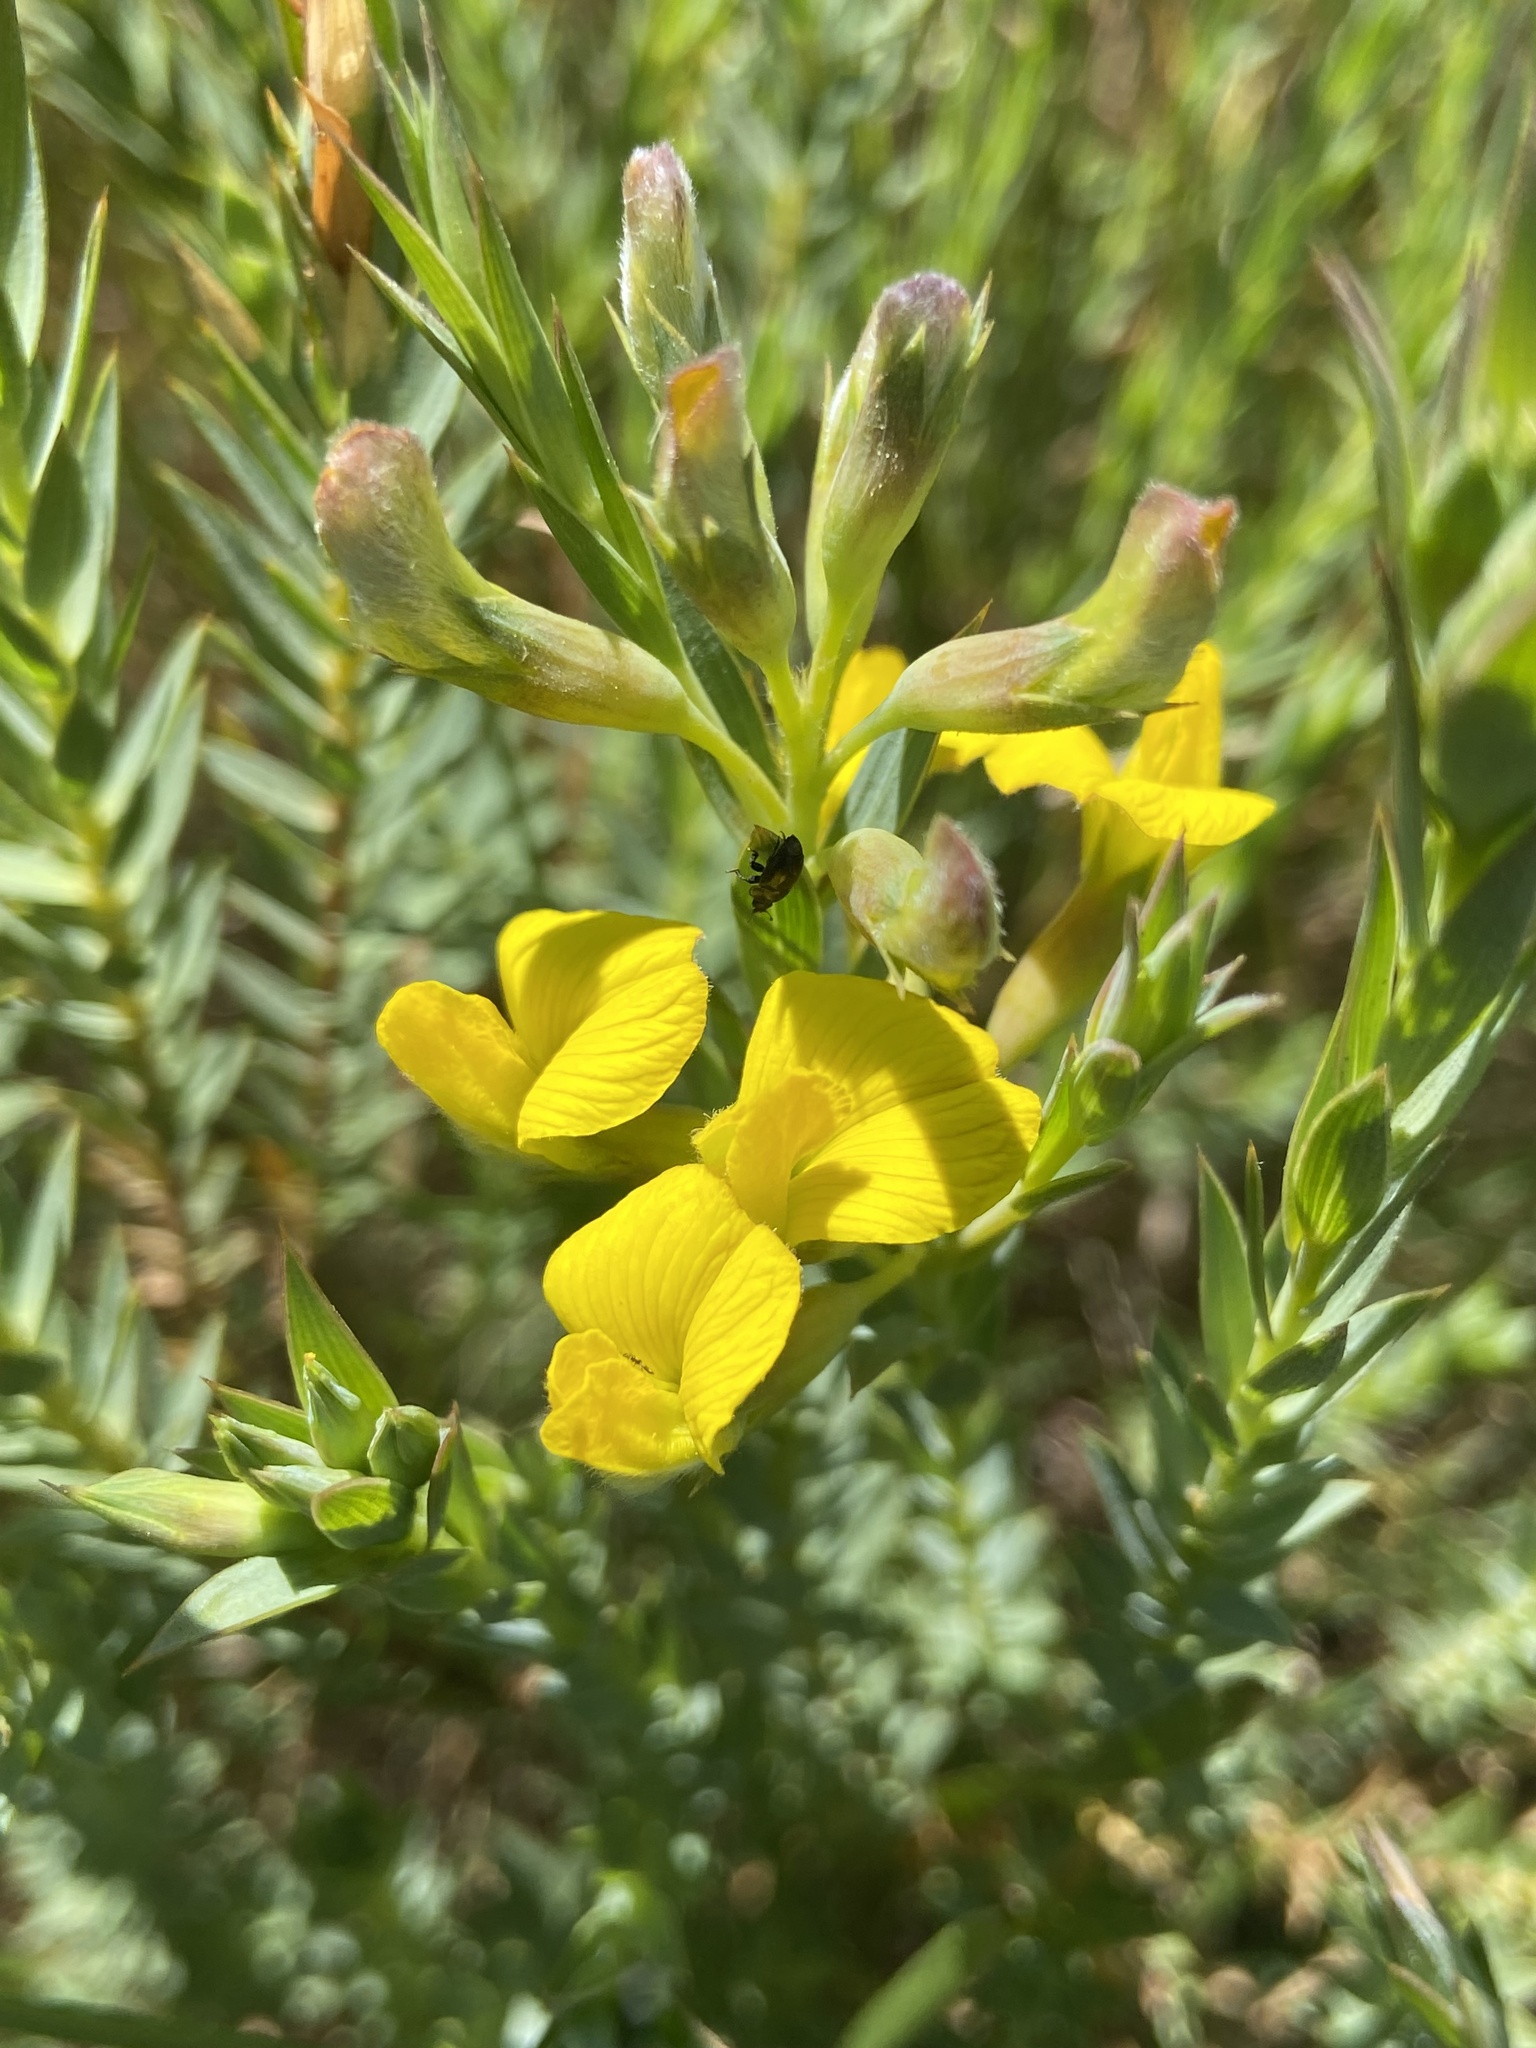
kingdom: Plantae
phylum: Tracheophyta
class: Magnoliopsida
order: Fabales
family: Fabaceae
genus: Aspalathus
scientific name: Aspalathus angustifolia
